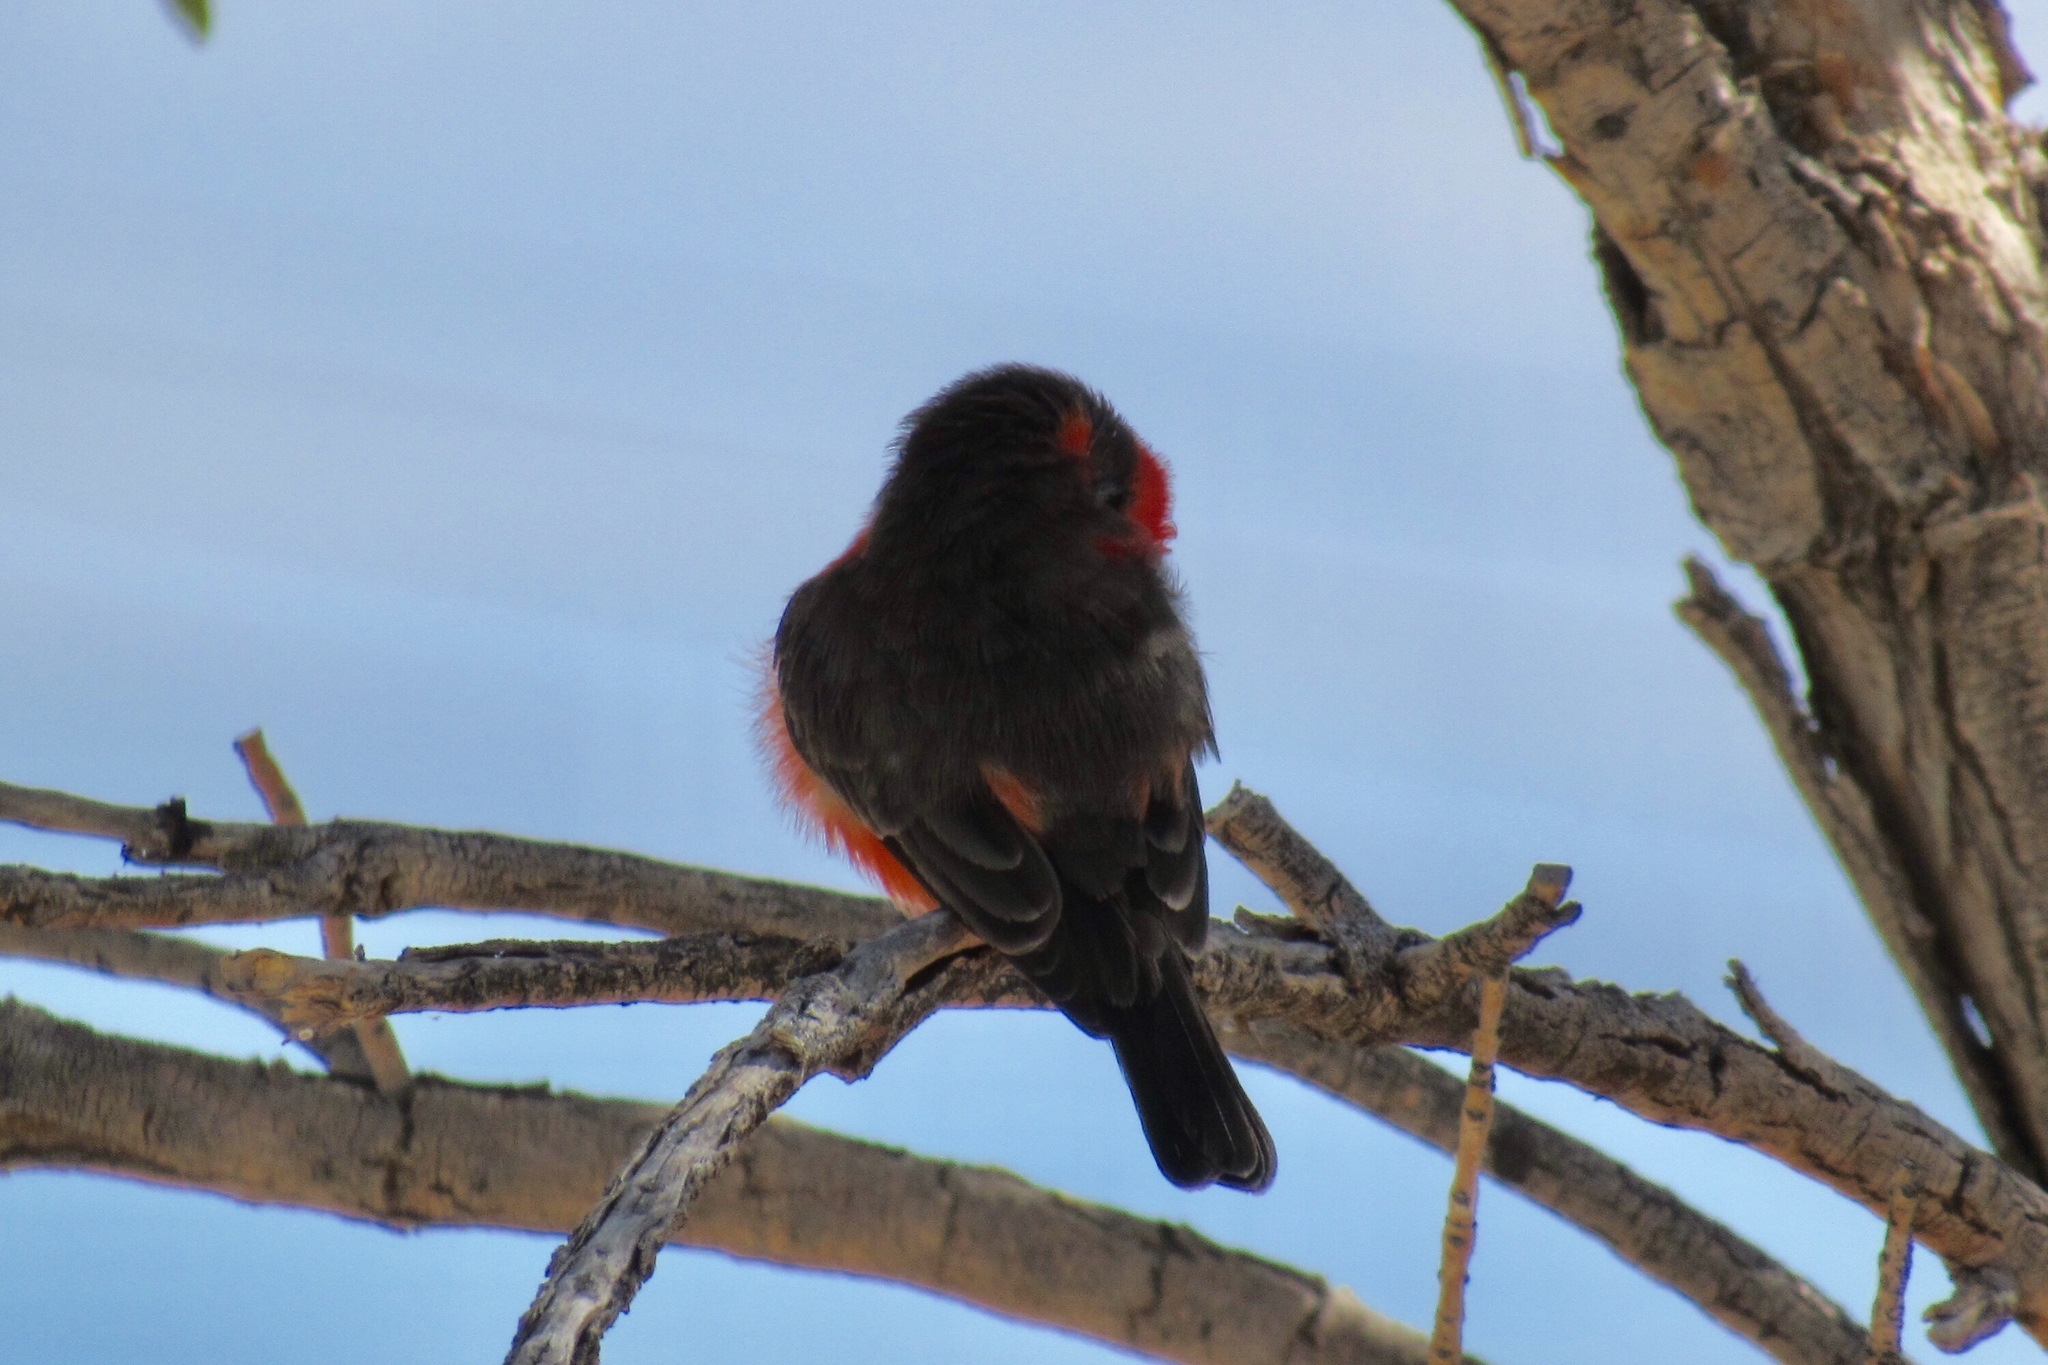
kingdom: Animalia
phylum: Chordata
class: Aves
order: Passeriformes
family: Tyrannidae
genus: Pyrocephalus
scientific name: Pyrocephalus rubinus
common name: Vermilion flycatcher
